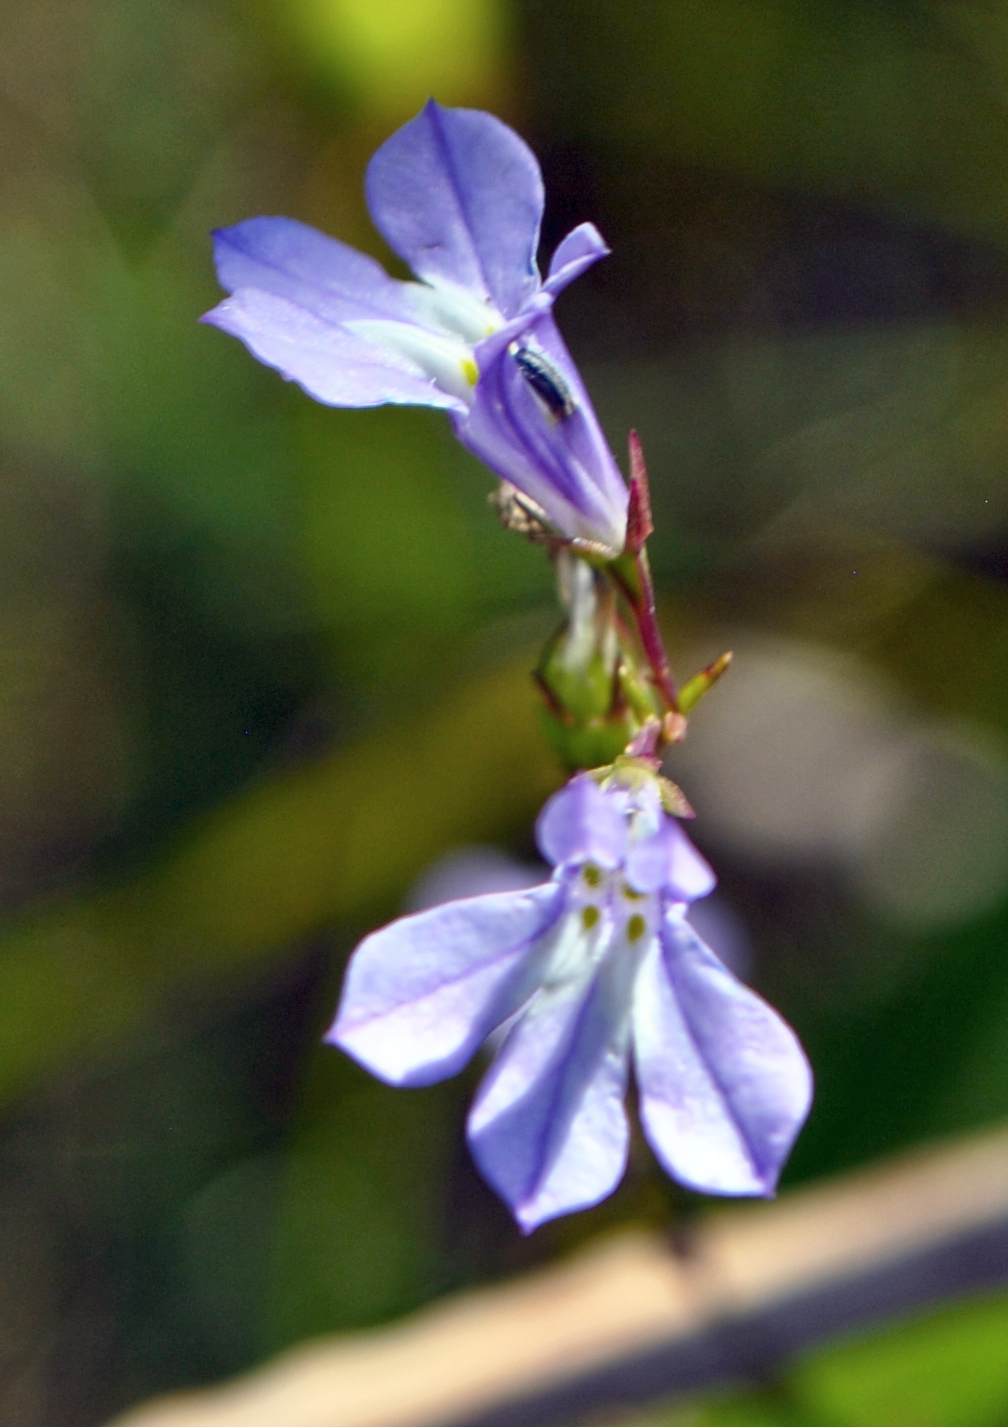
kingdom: Plantae
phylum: Tracheophyta
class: Magnoliopsida
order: Asterales
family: Campanulaceae
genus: Lobelia
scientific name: Lobelia kalmii
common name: Kalm's lobelia
